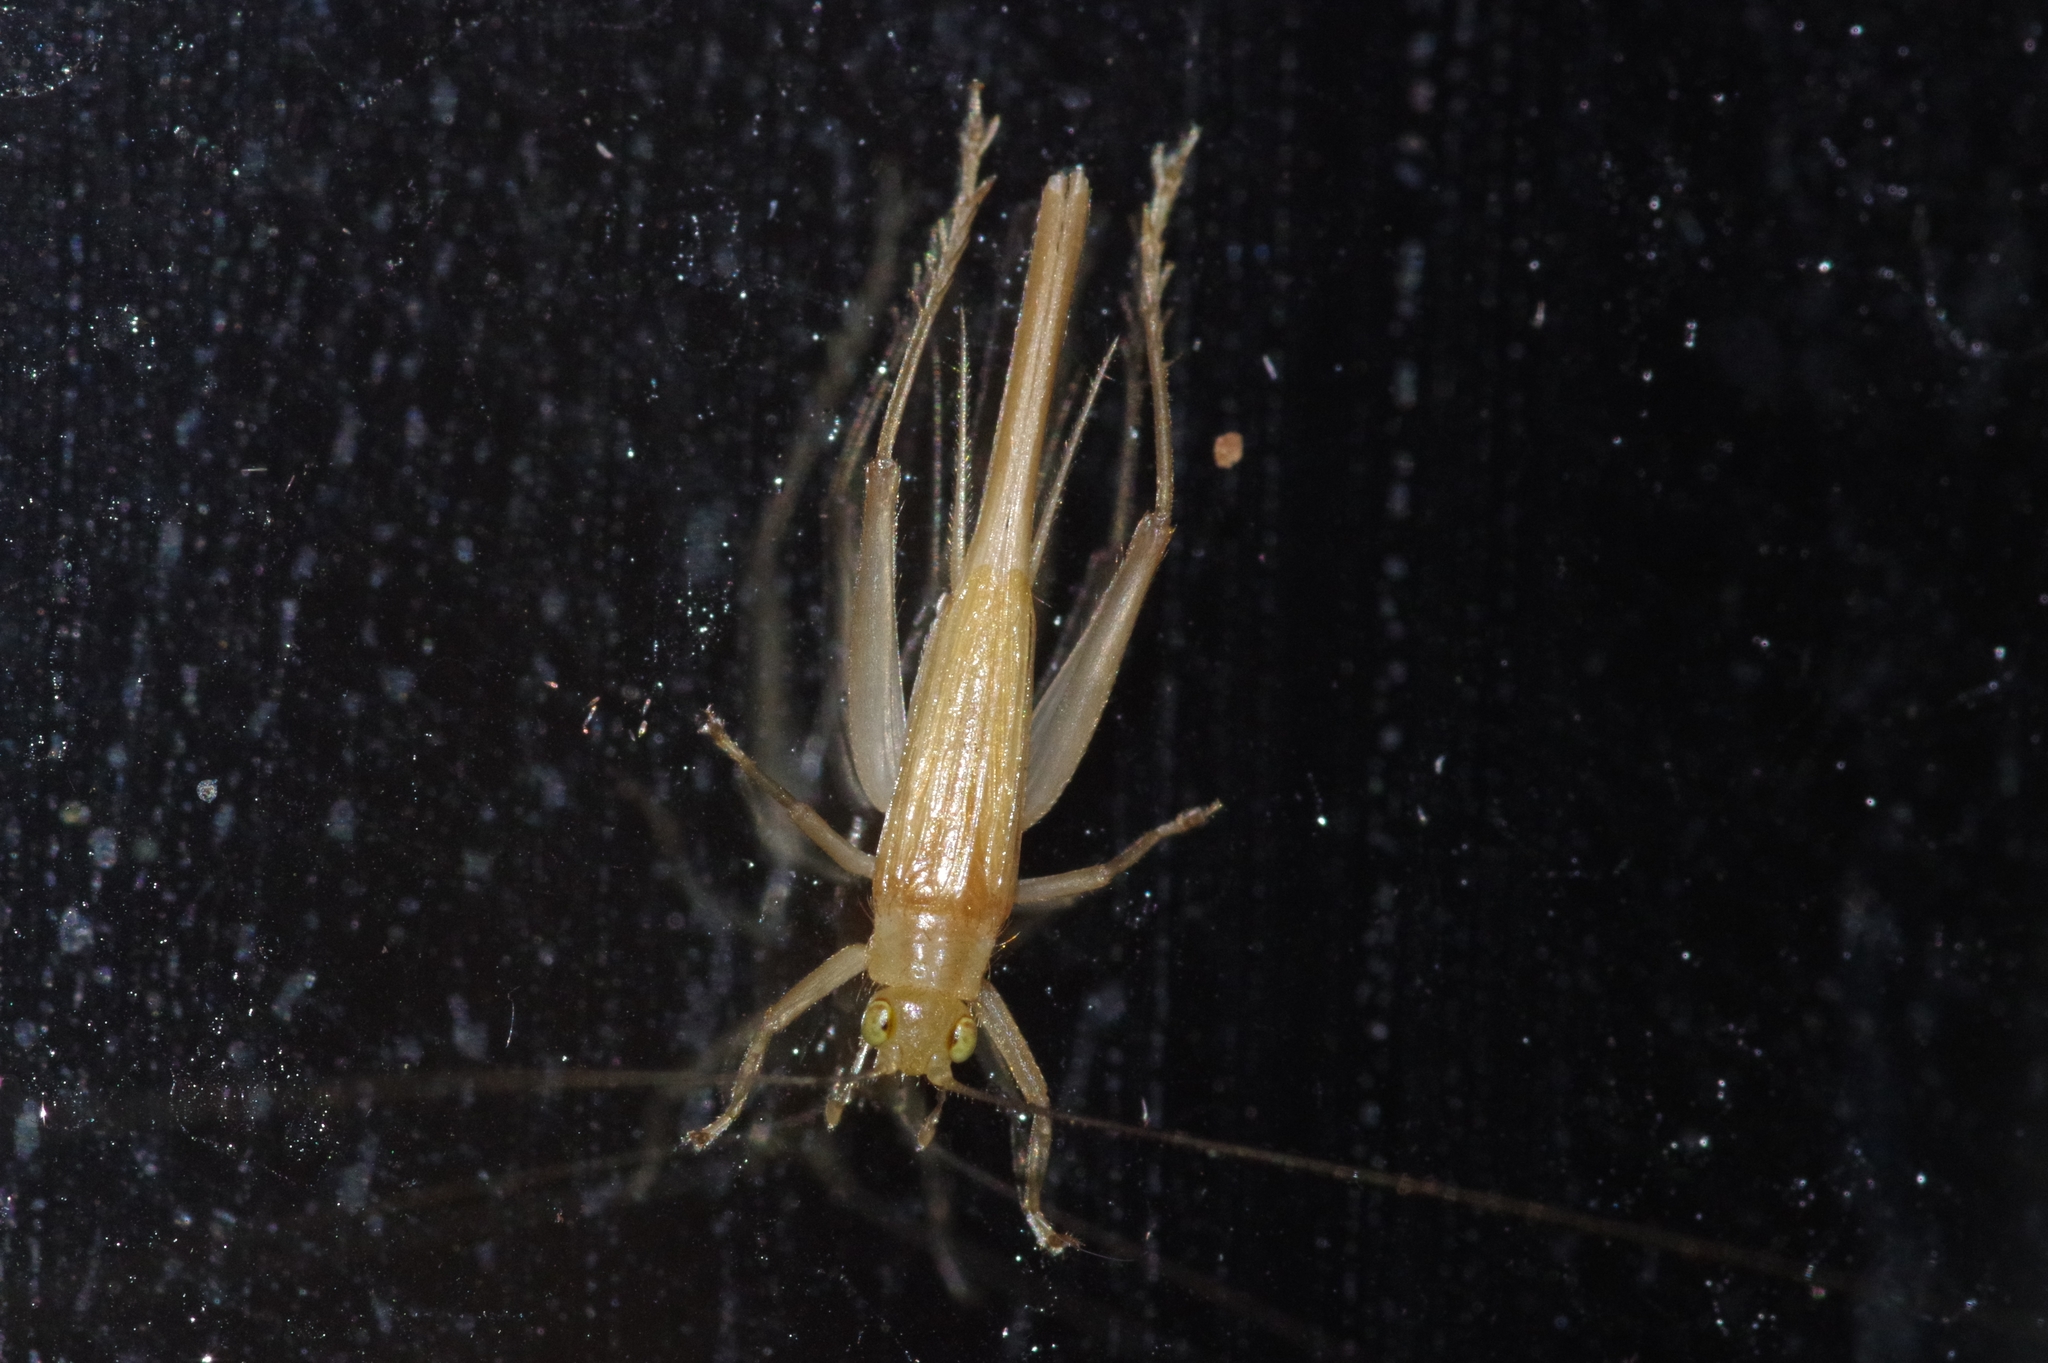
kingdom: Animalia
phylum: Arthropoda
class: Insecta
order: Orthoptera
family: Trigonidiidae
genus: Natula
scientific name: Natula pallidula
